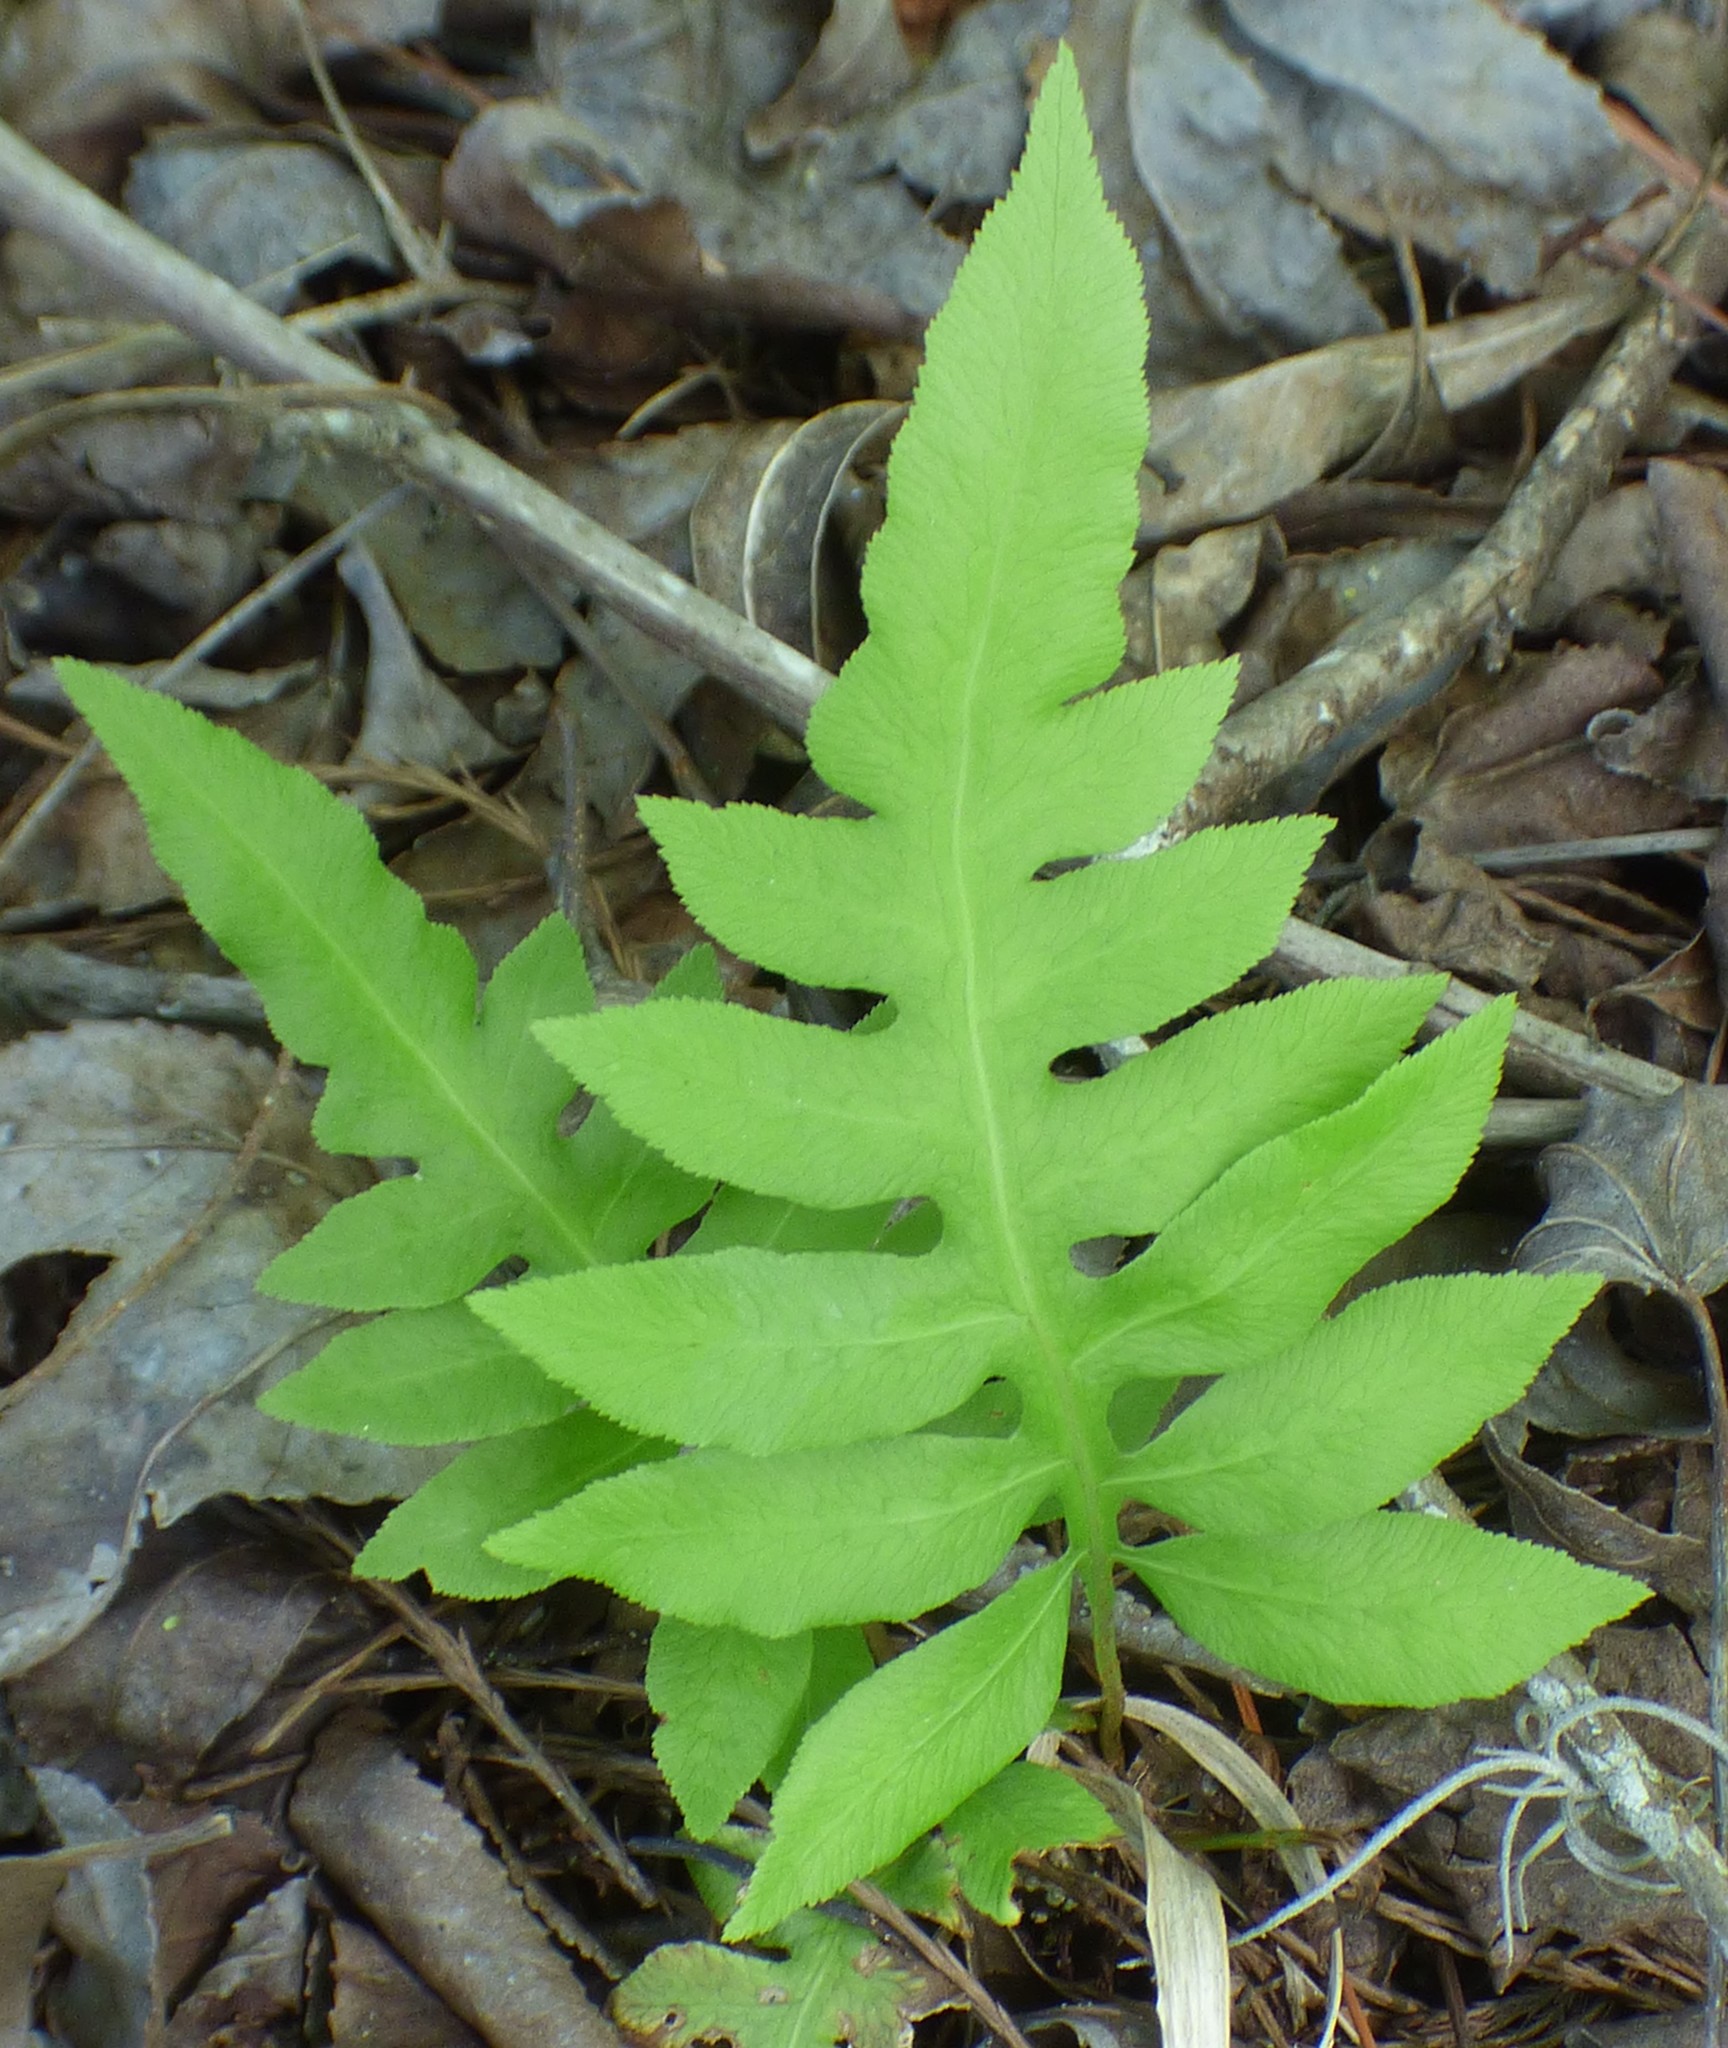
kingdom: Plantae
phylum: Tracheophyta
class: Polypodiopsida
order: Polypodiales
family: Blechnaceae
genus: Lorinseria
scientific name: Lorinseria areolata
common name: Dwarf chain fern
